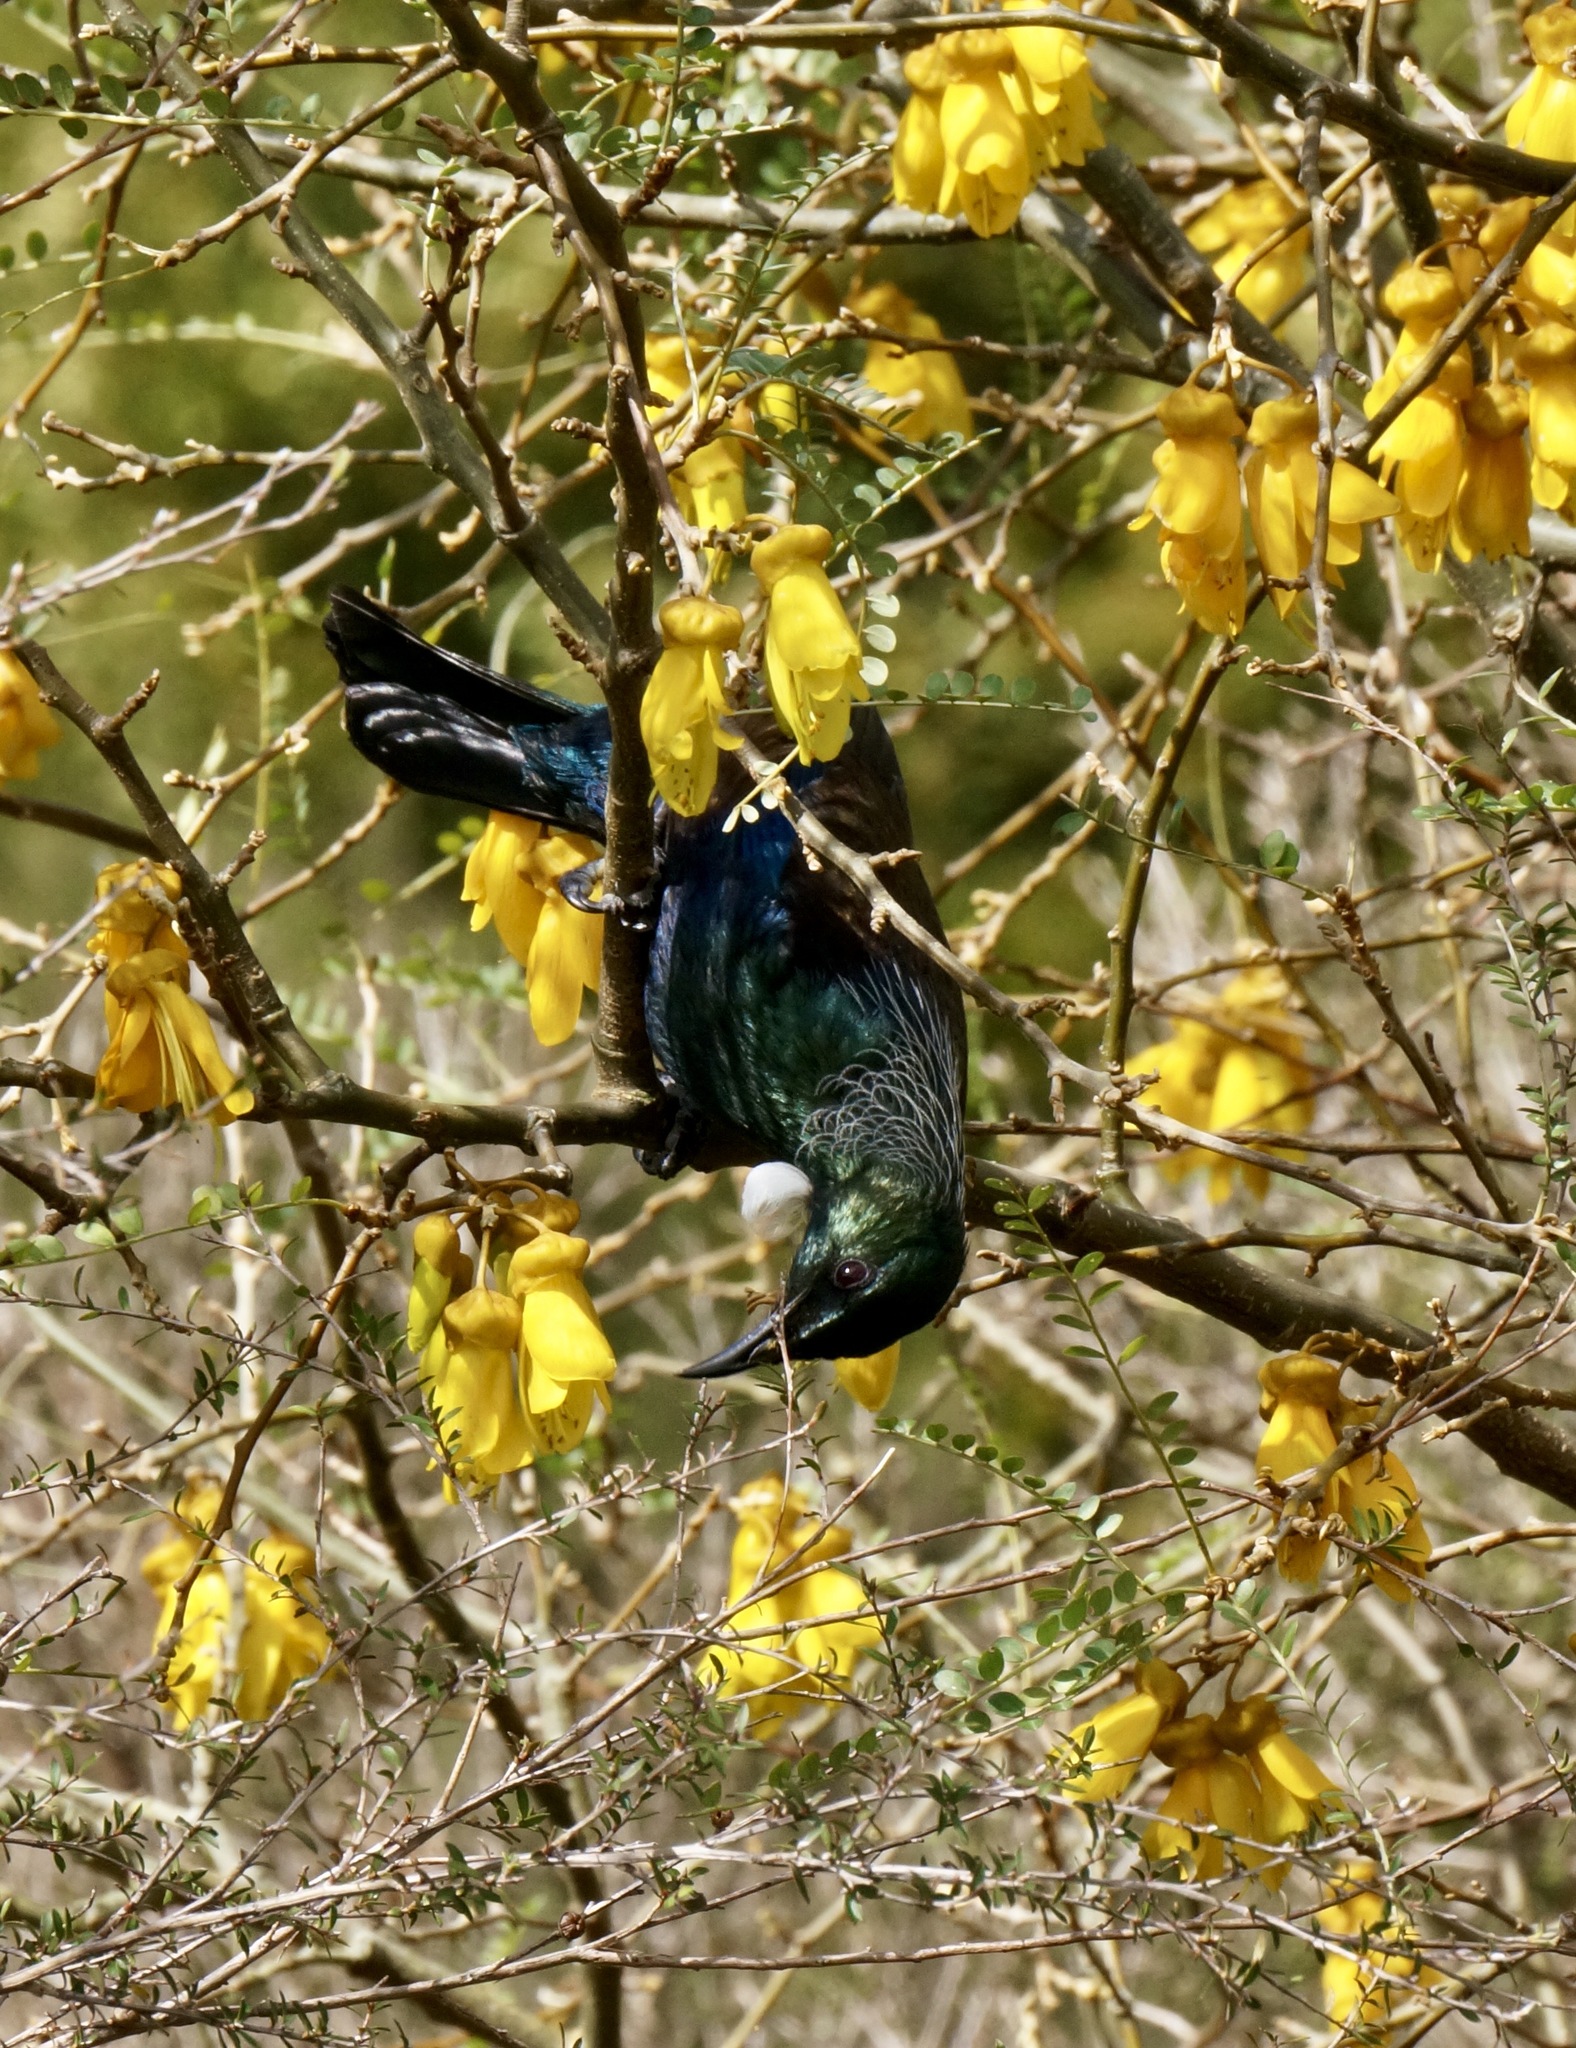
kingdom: Animalia
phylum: Chordata
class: Aves
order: Passeriformes
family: Meliphagidae
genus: Prosthemadera
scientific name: Prosthemadera novaeseelandiae
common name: Tui
